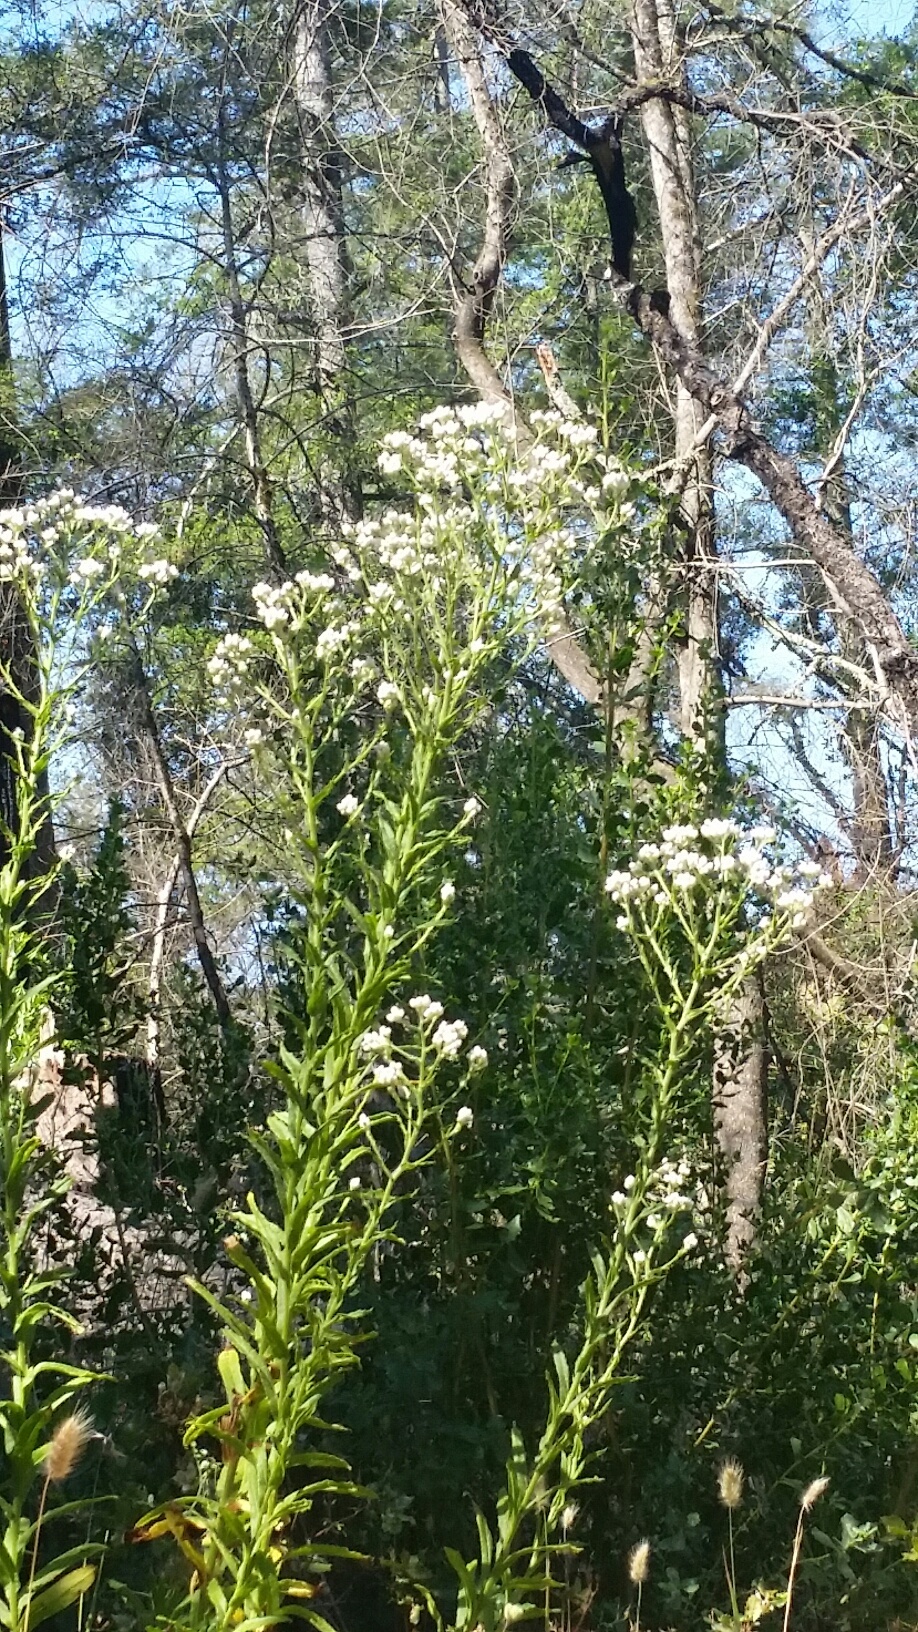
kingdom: Plantae
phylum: Tracheophyta
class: Magnoliopsida
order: Asterales
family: Asteraceae
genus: Pseudognaphalium
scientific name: Pseudognaphalium californicum
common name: California rabbit-tobacco
